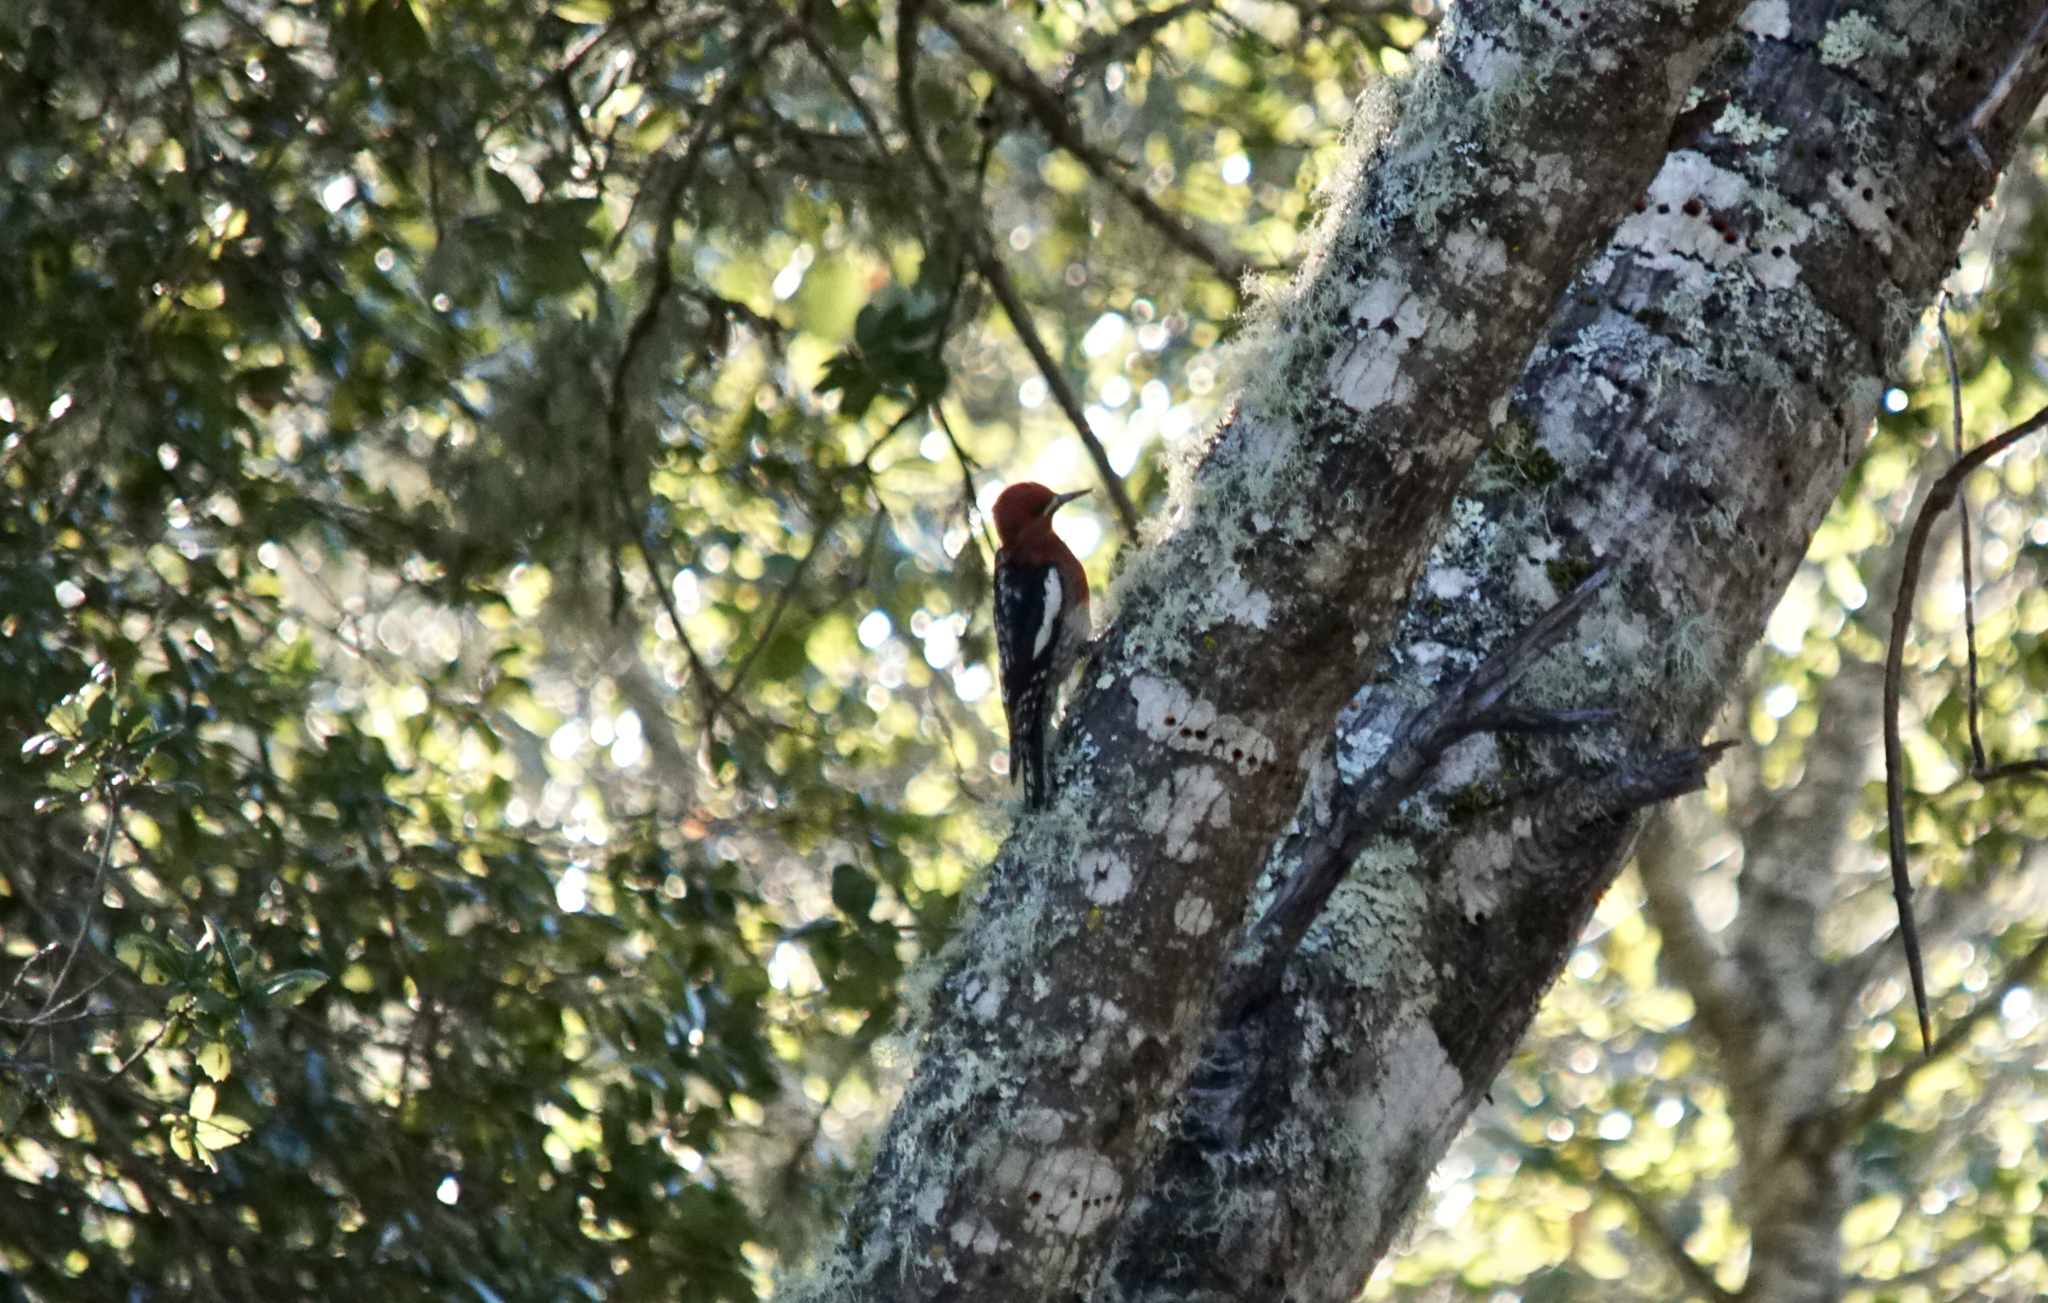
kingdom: Animalia
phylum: Chordata
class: Aves
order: Piciformes
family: Picidae
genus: Sphyrapicus
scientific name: Sphyrapicus ruber
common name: Red-breasted sapsucker
